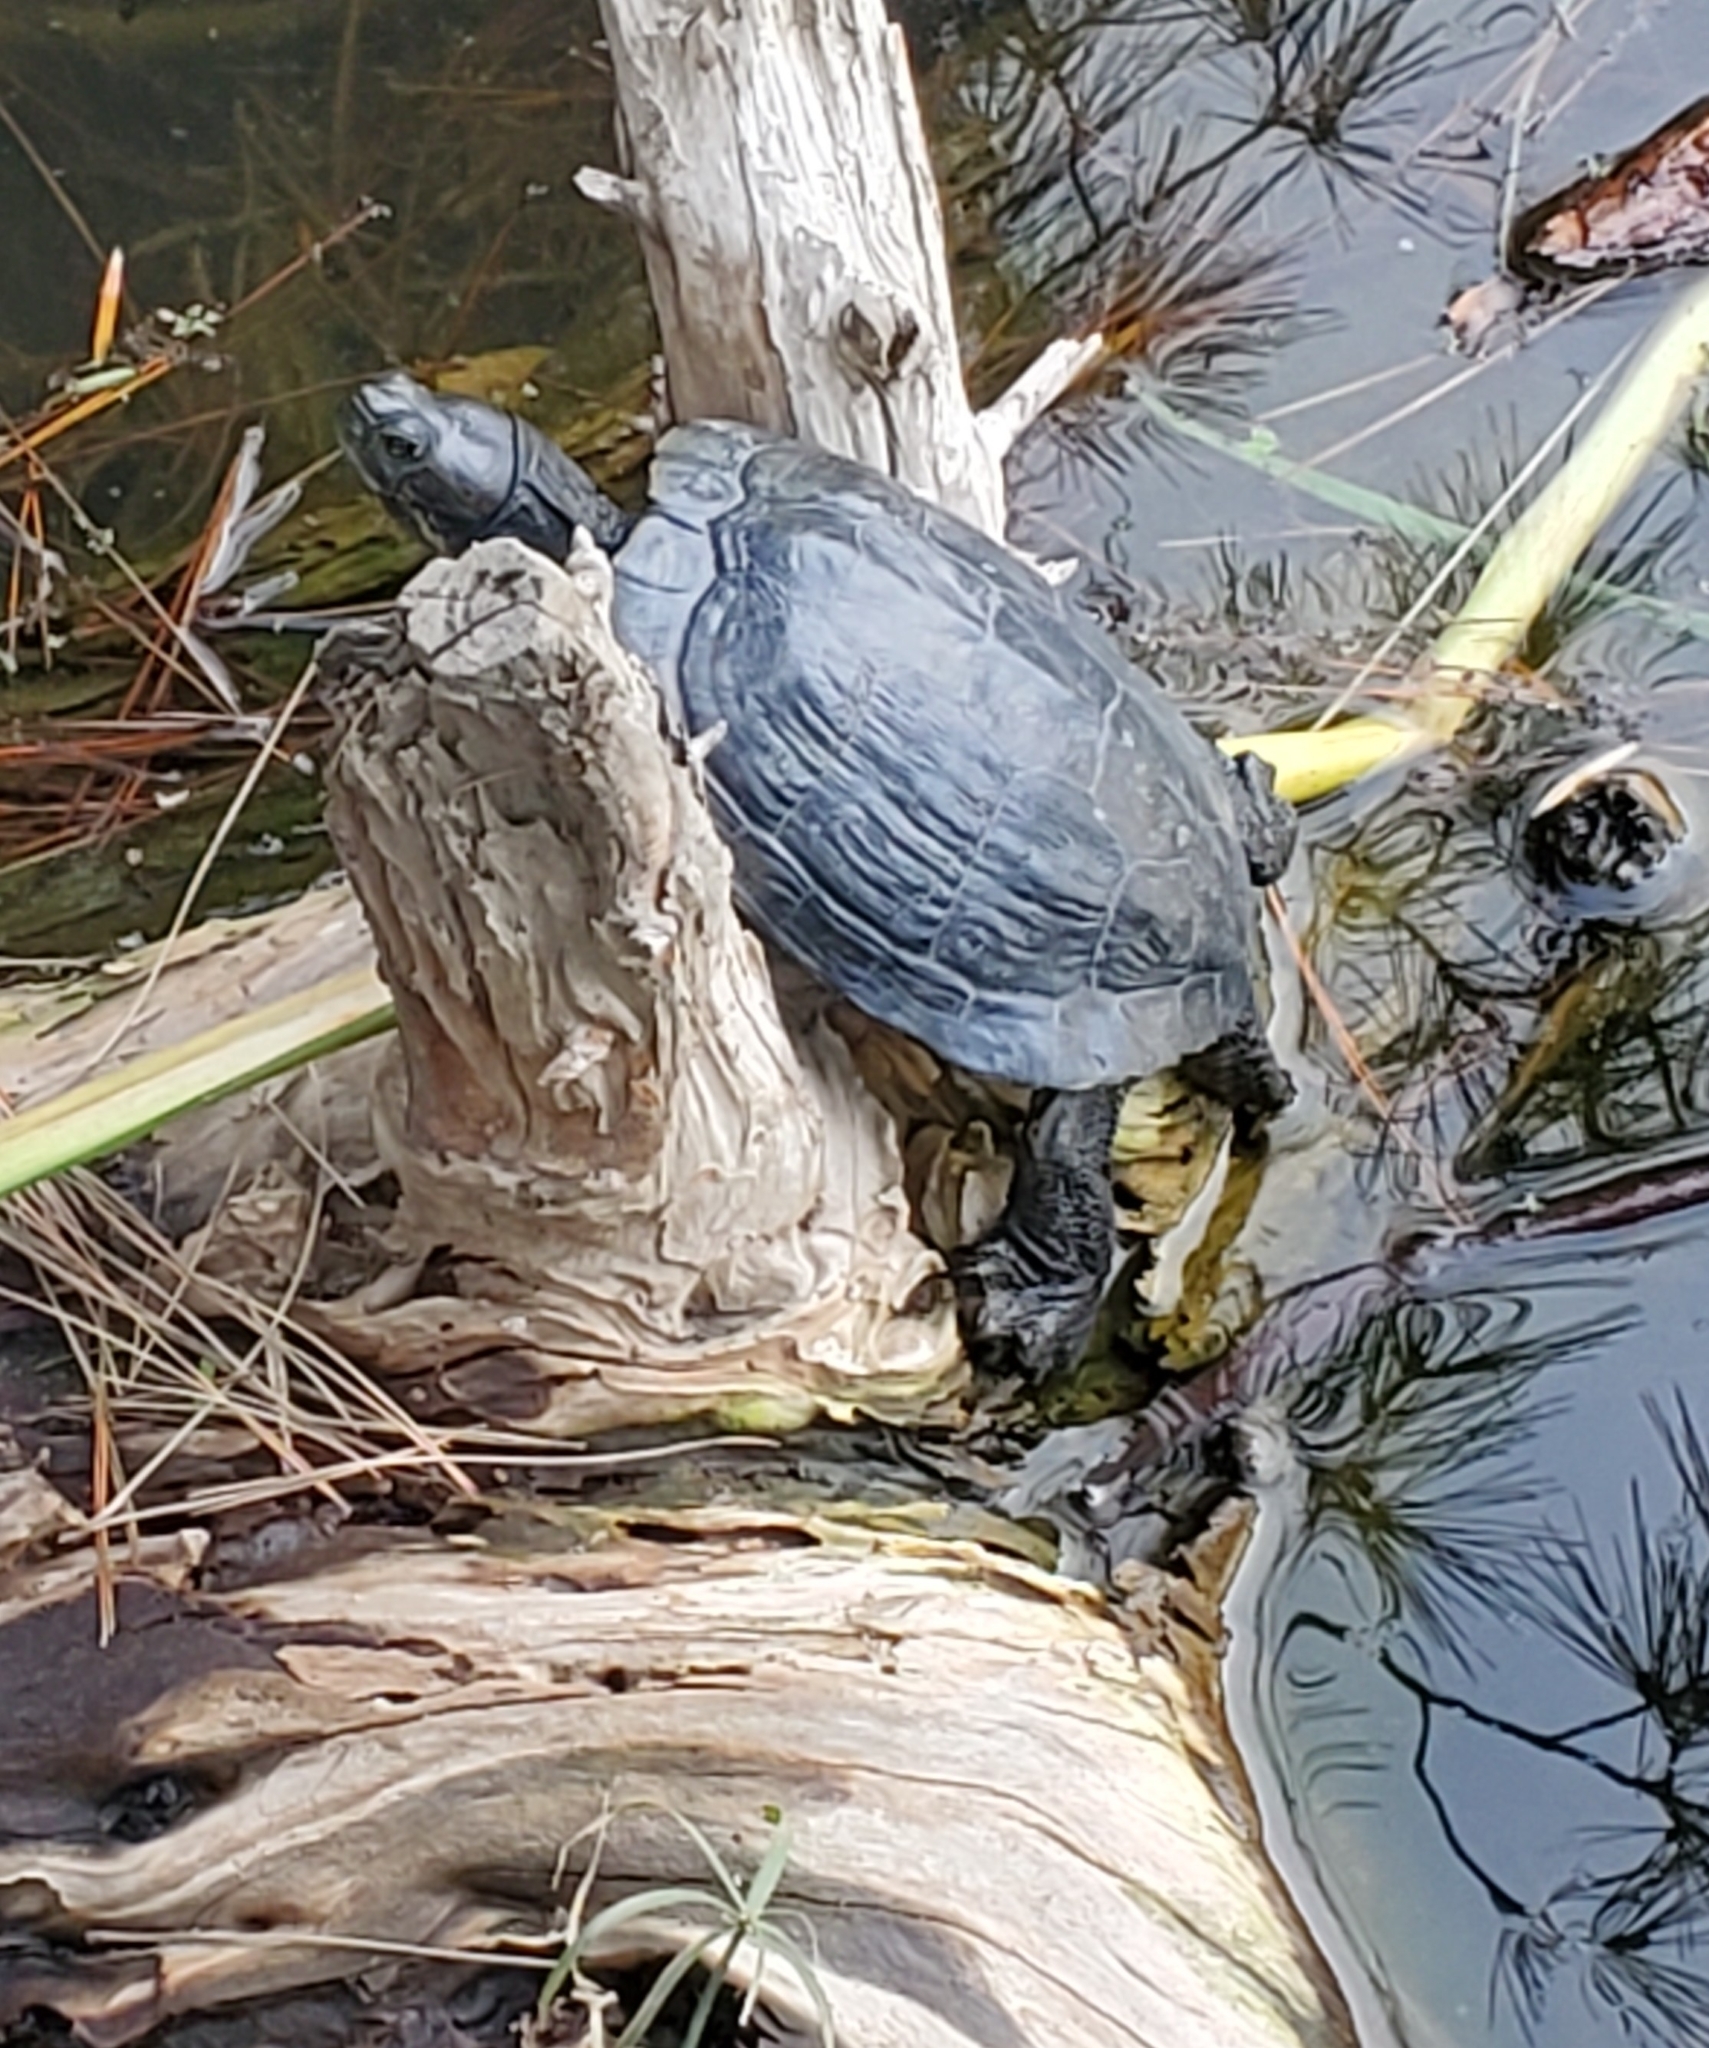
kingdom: Animalia
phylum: Chordata
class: Testudines
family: Emydidae
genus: Trachemys
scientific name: Trachemys scripta
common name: Slider
